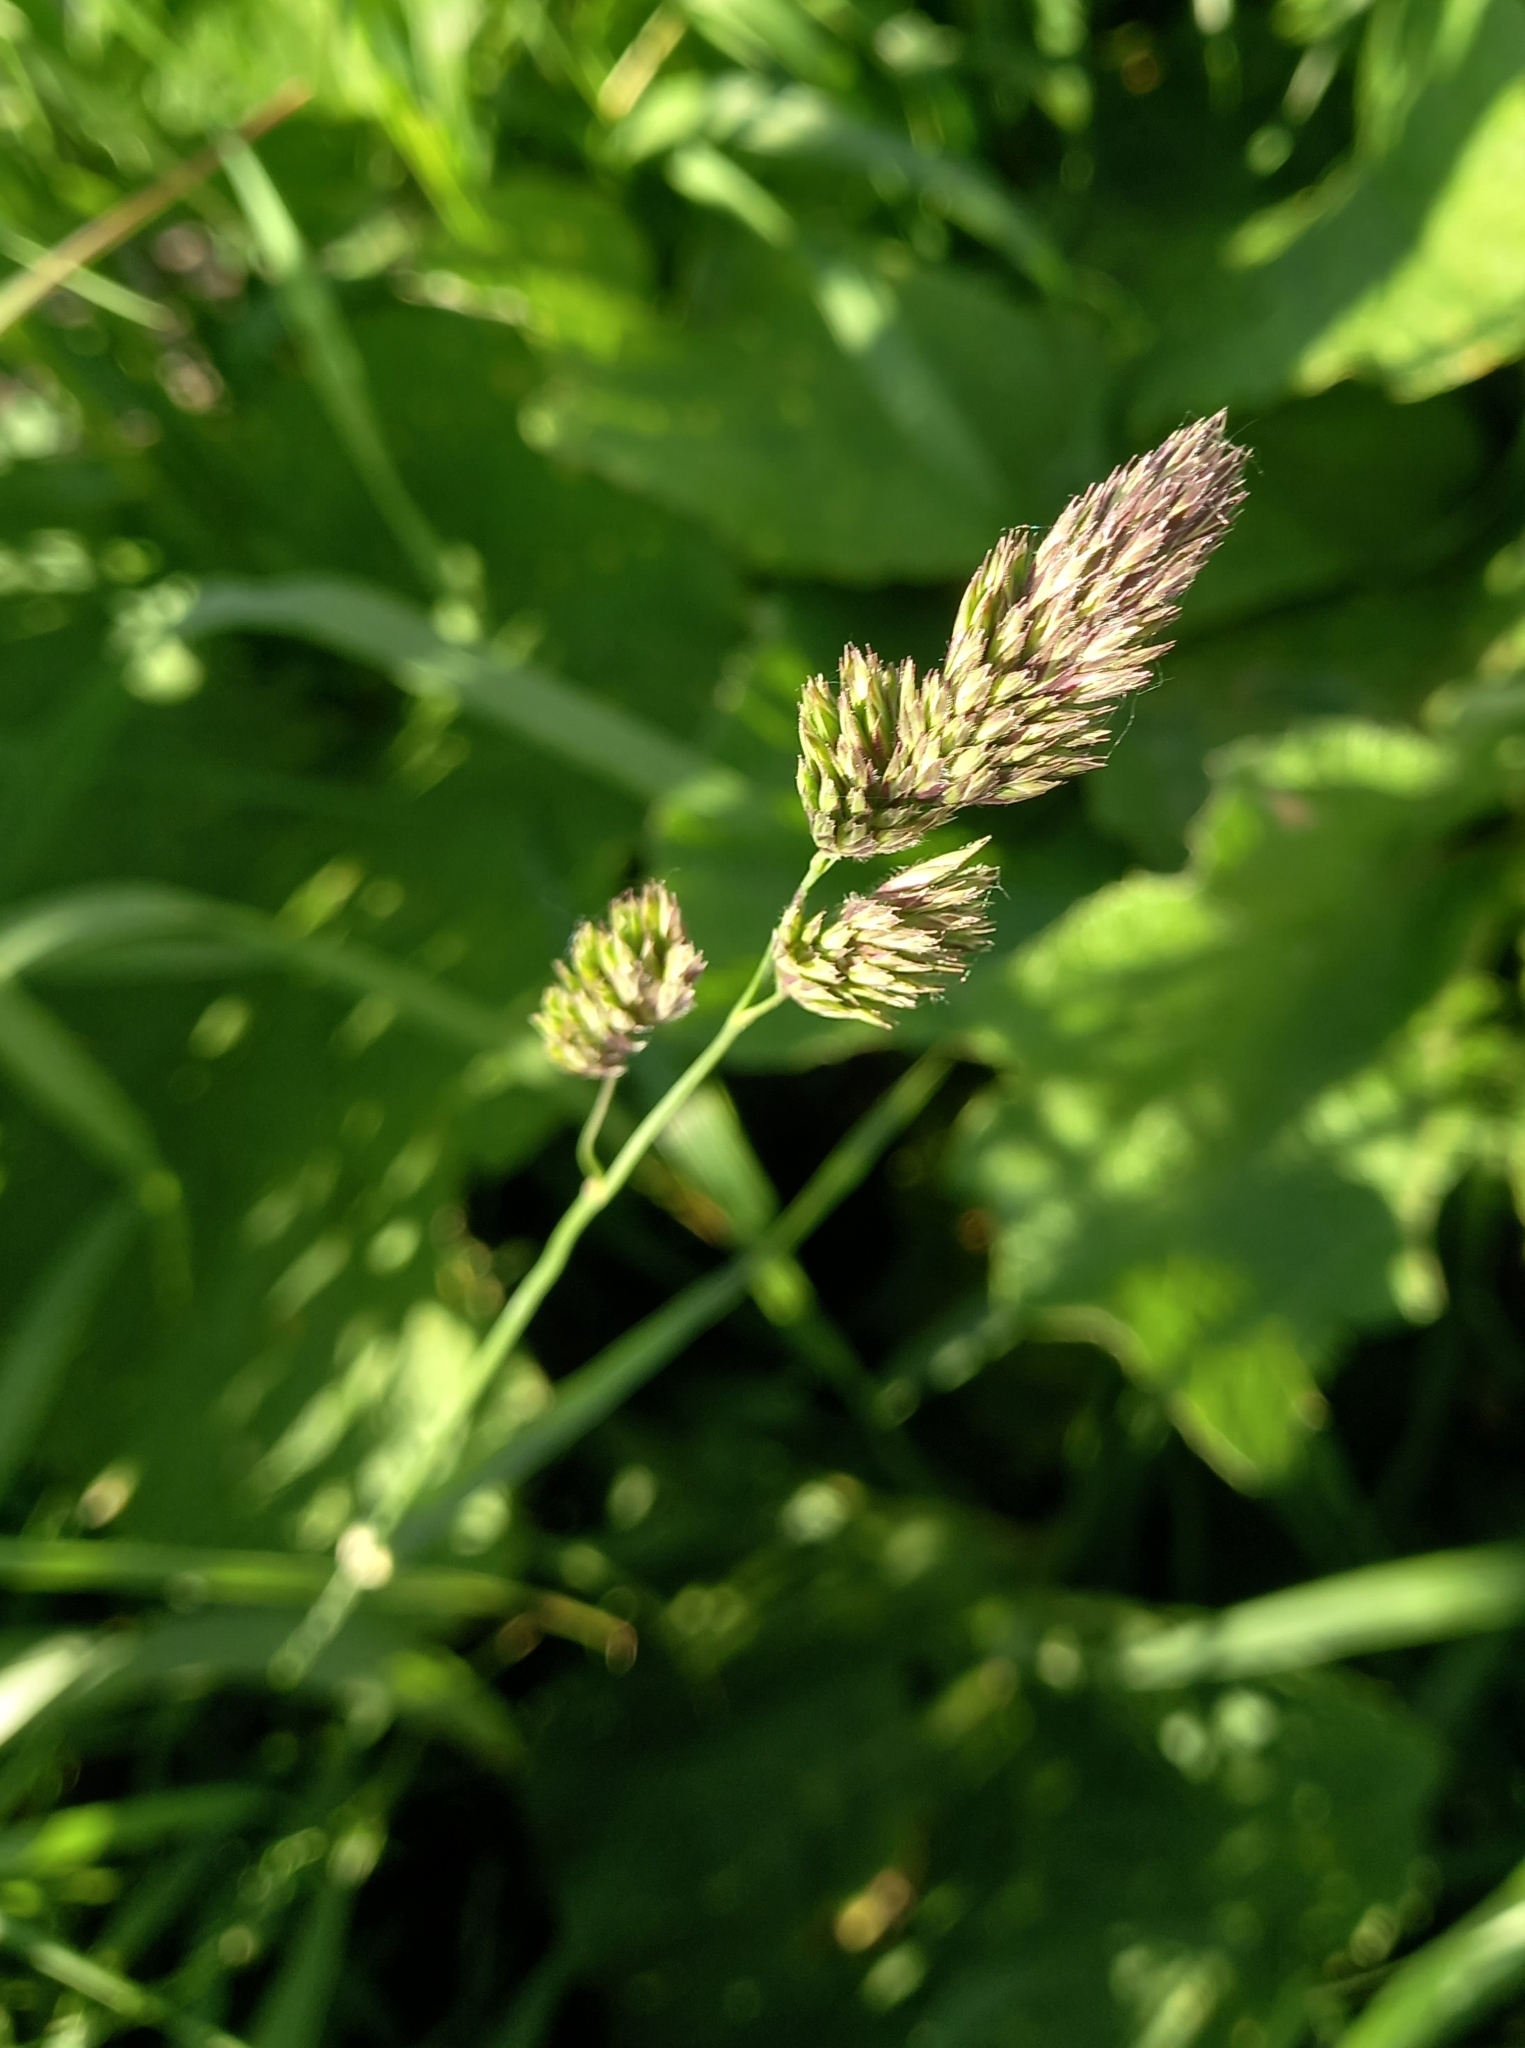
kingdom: Plantae
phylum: Tracheophyta
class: Liliopsida
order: Poales
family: Poaceae
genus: Dactylis
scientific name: Dactylis glomerata
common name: Orchardgrass
